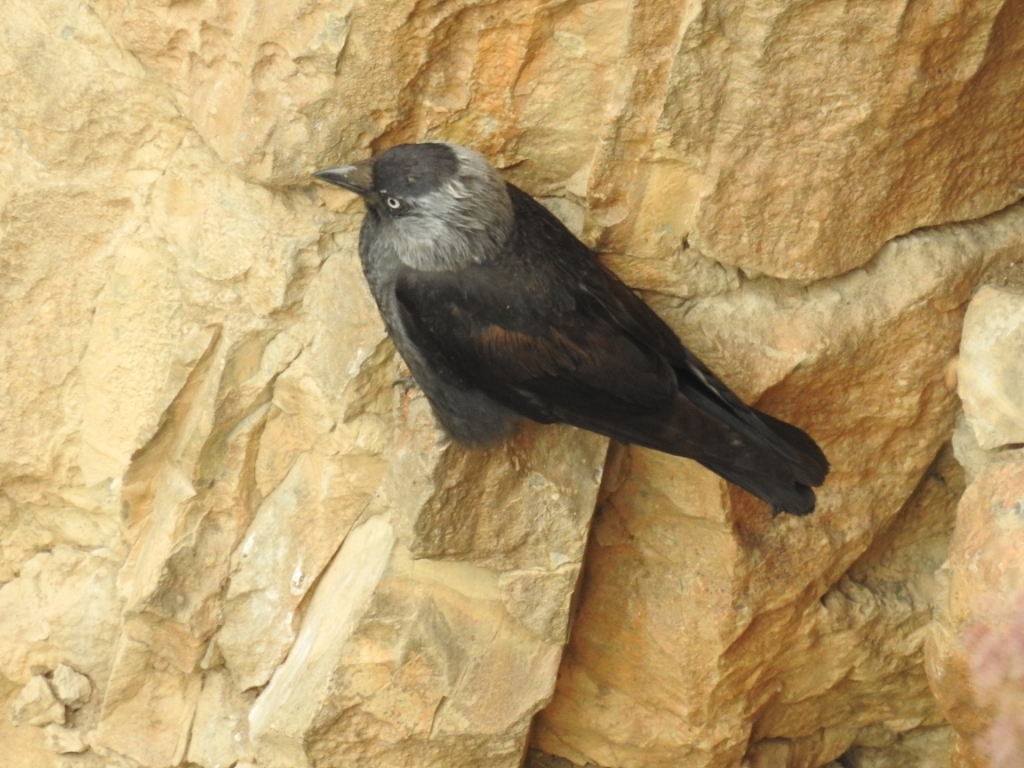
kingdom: Animalia
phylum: Chordata
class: Aves
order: Passeriformes
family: Corvidae
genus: Coloeus
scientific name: Coloeus monedula
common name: Western jackdaw
